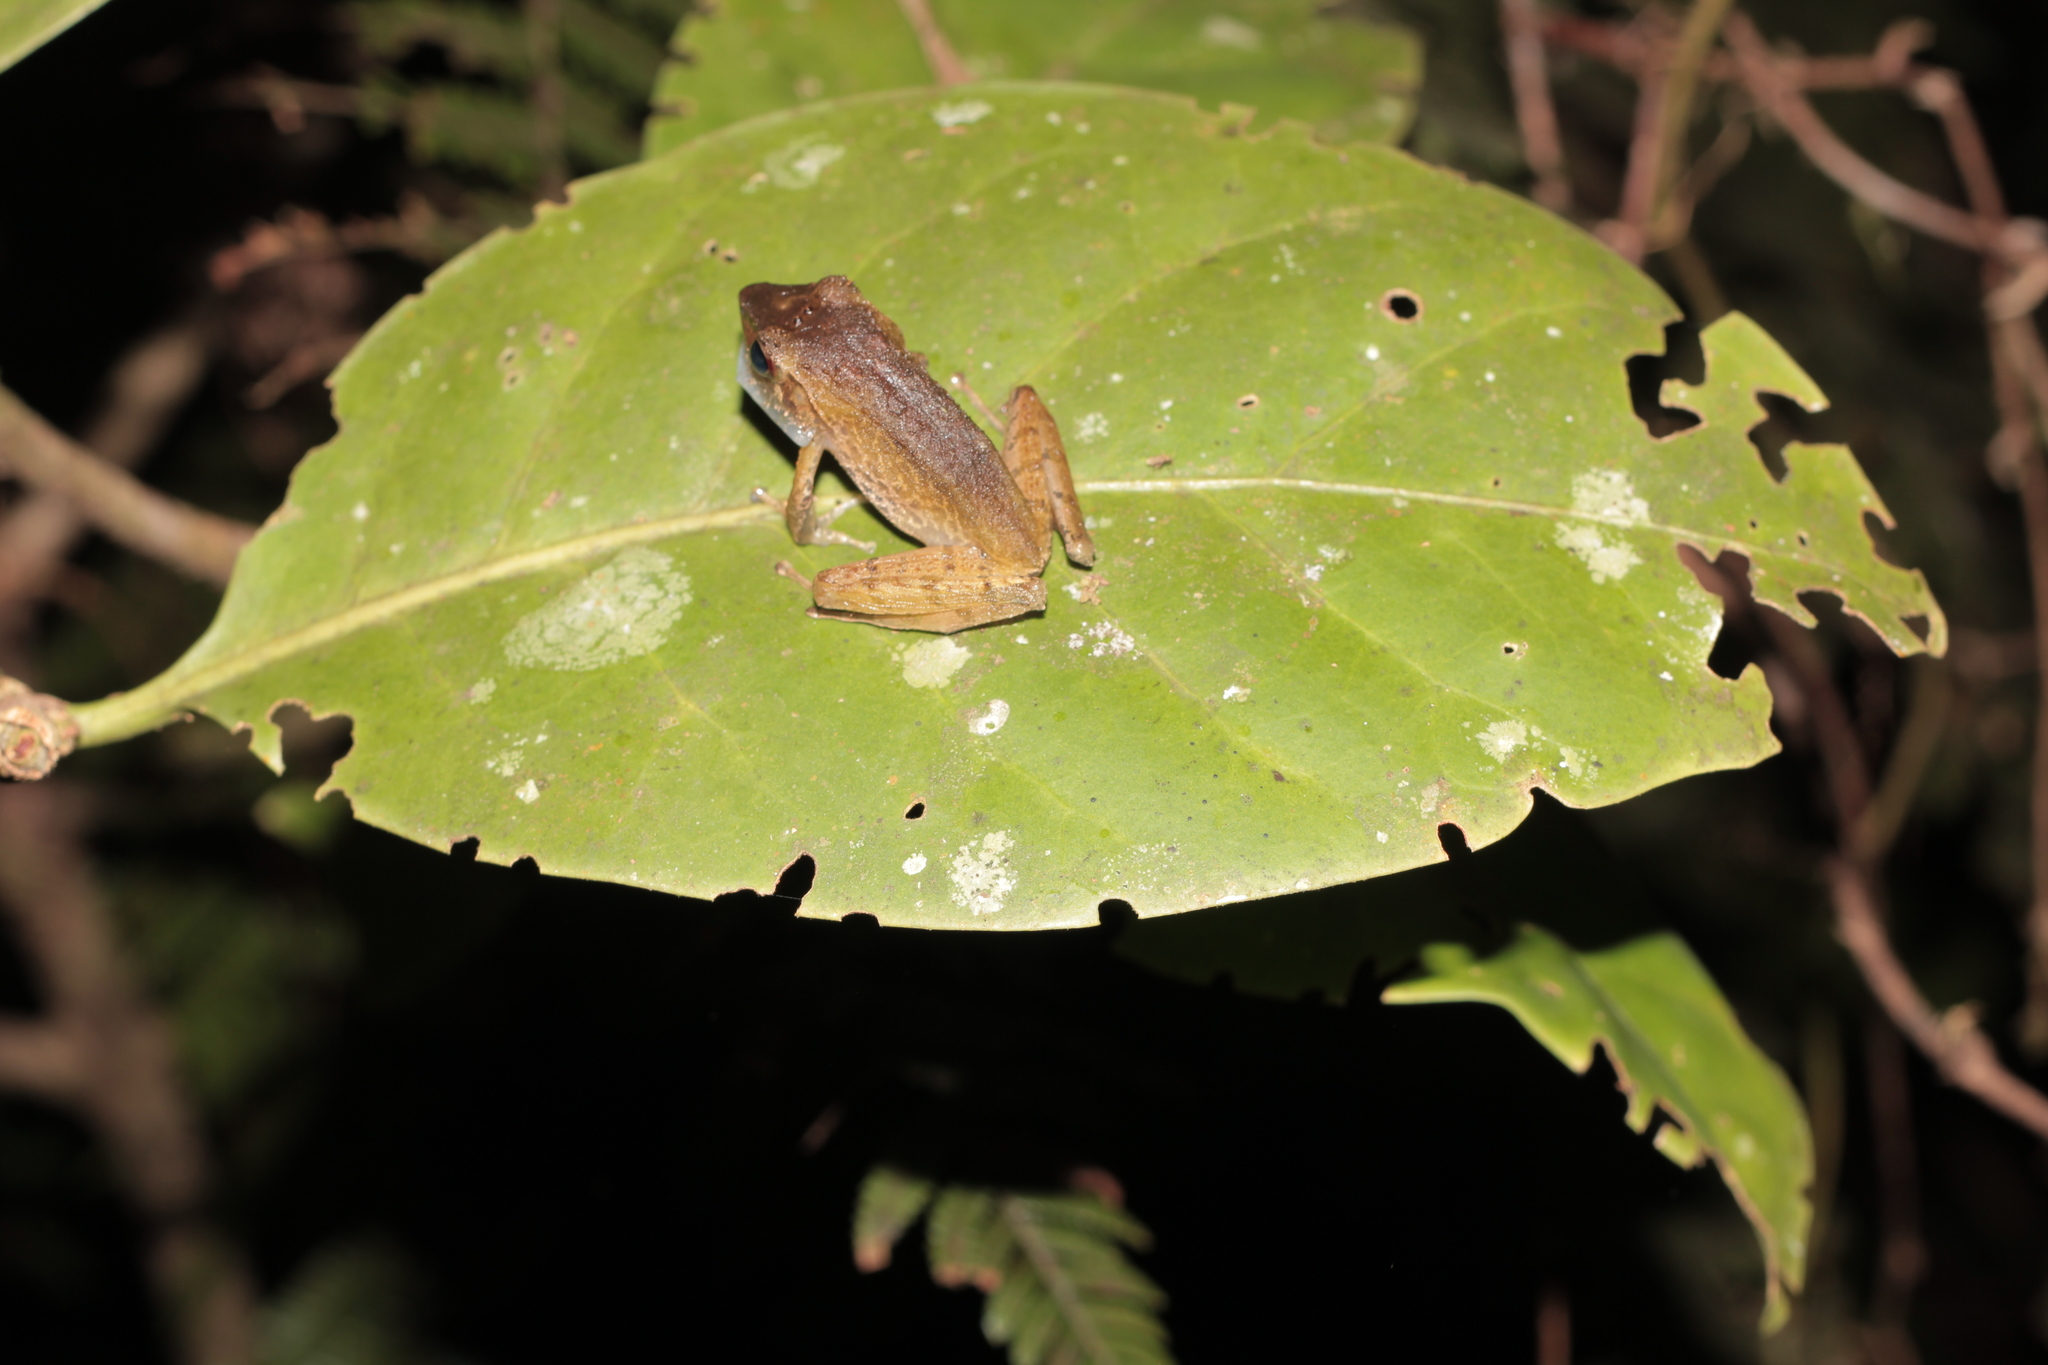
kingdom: Animalia
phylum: Chordata
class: Amphibia
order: Anura
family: Mantellidae
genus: Gephyromantis
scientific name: Gephyromantis cornutus
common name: Horned madagascar frog
